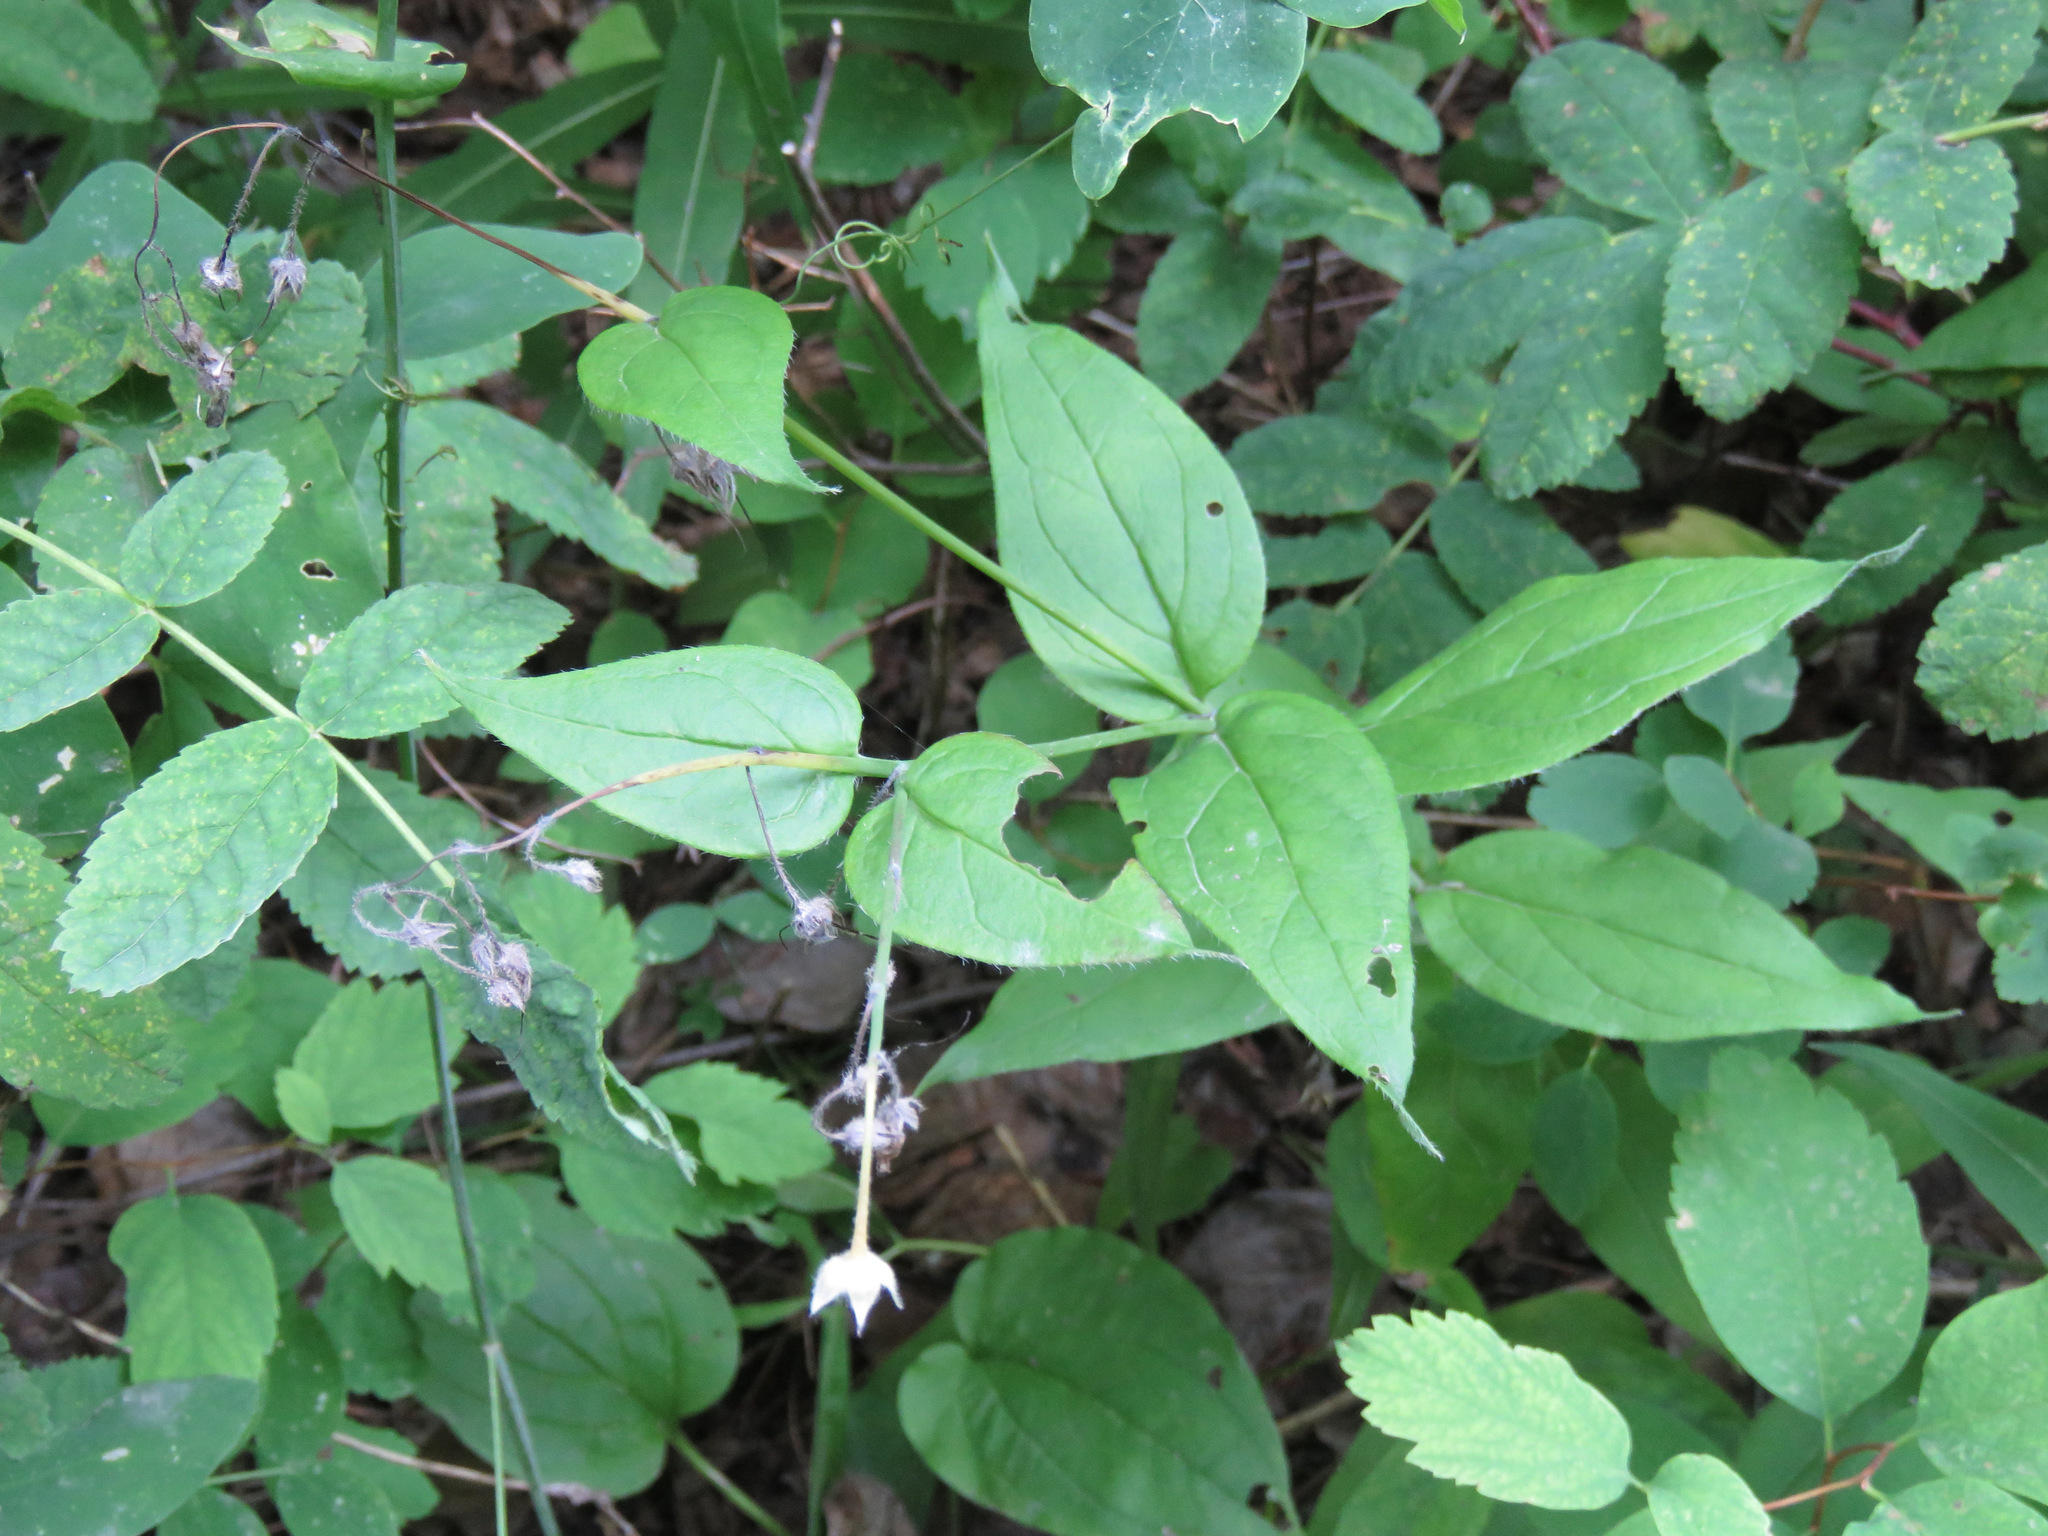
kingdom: Plantae
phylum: Tracheophyta
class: Magnoliopsida
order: Boraginales
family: Boraginaceae
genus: Mertensia
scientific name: Mertensia paniculata
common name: Panicled bluebells
